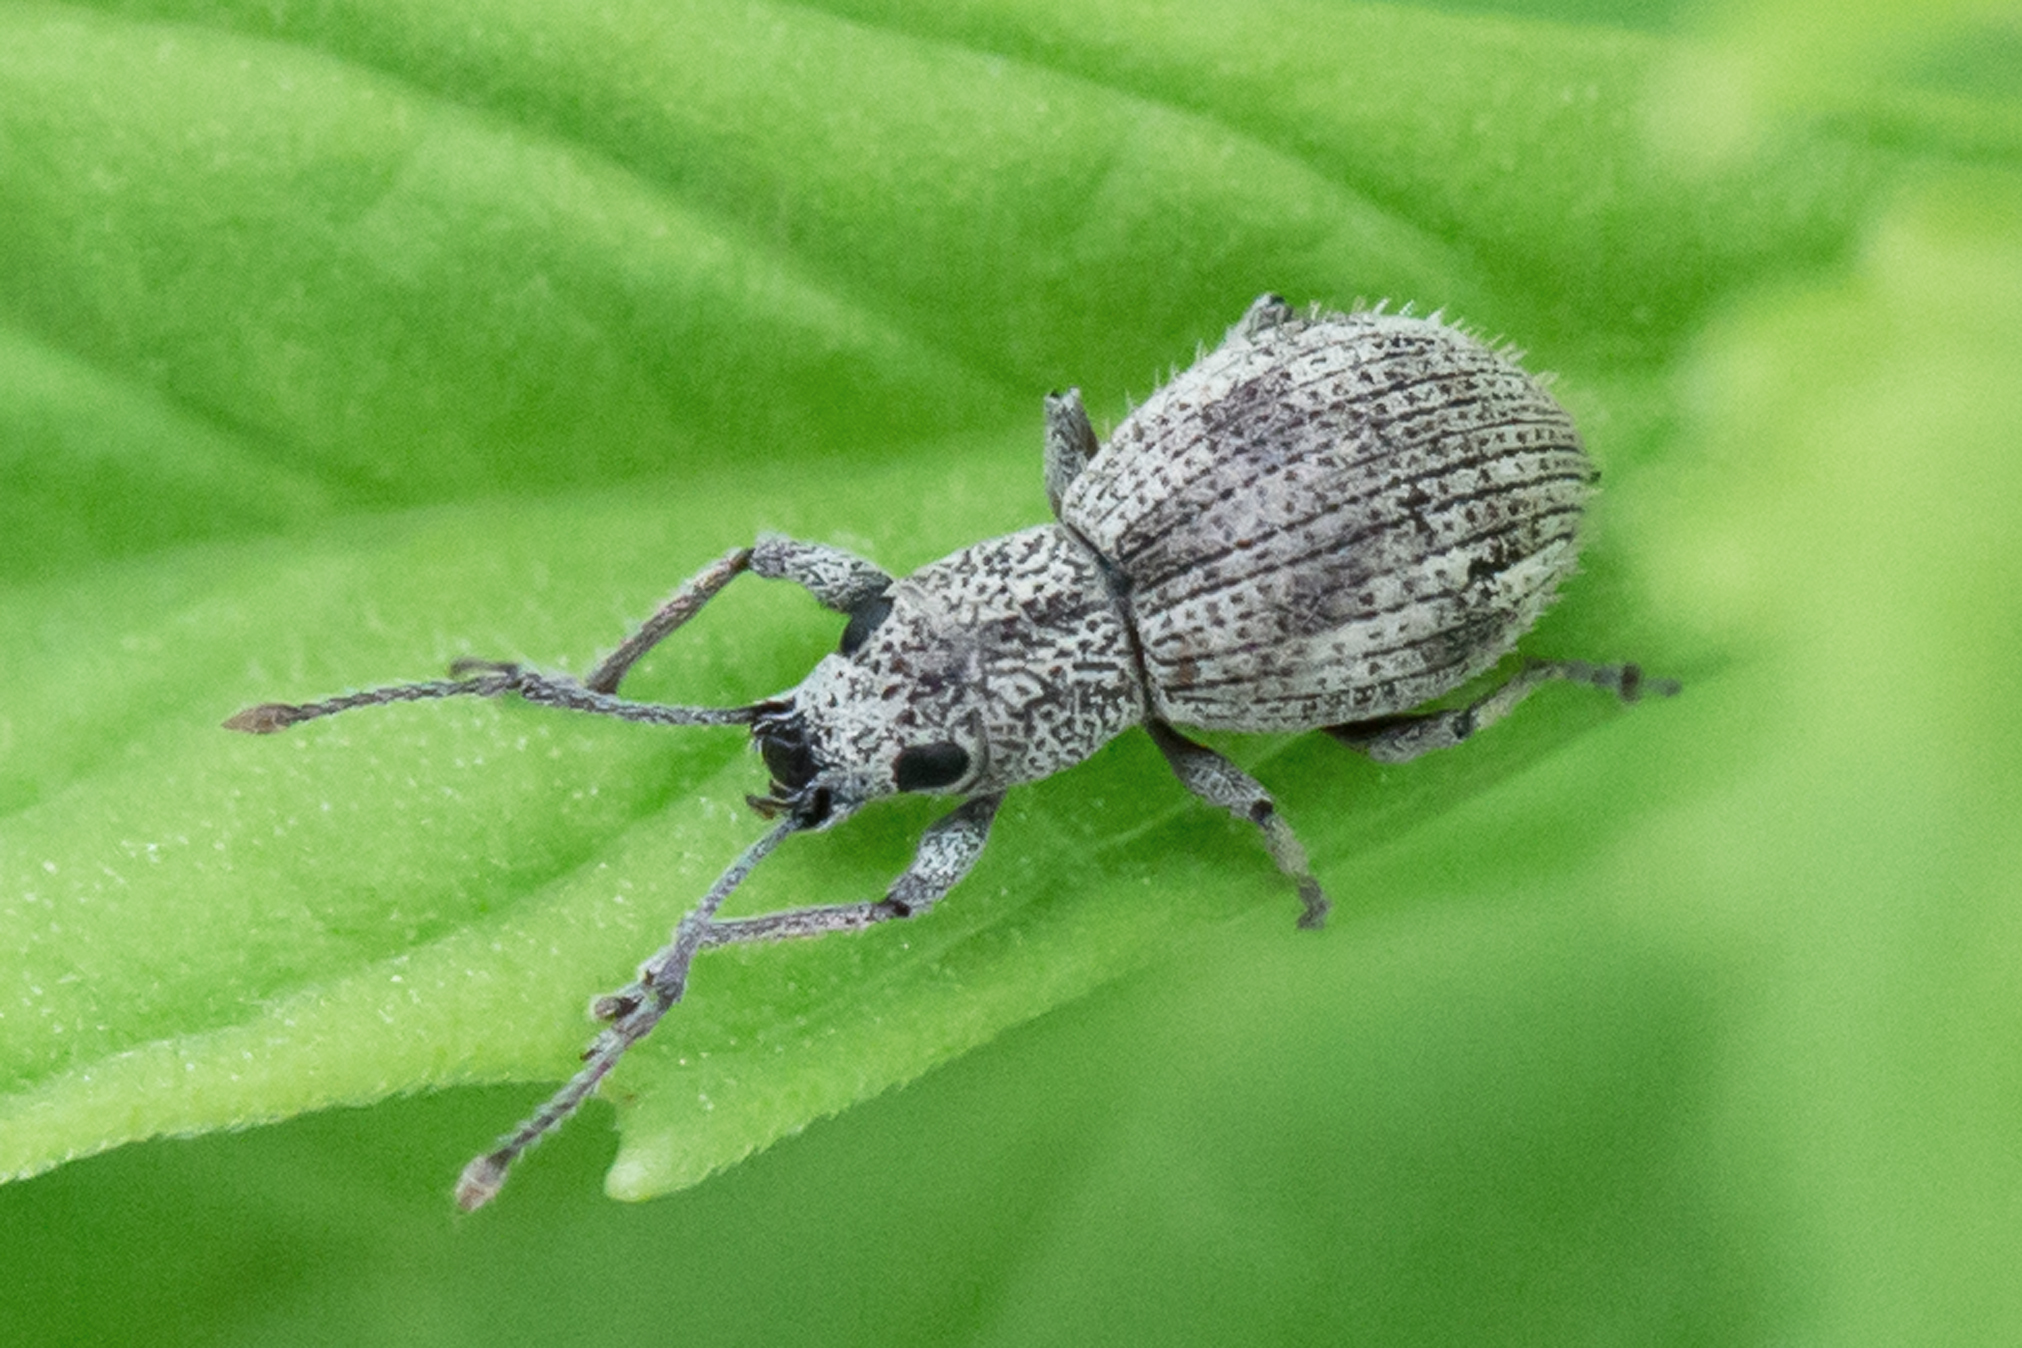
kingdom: Animalia
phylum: Arthropoda
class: Insecta
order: Coleoptera
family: Curculionidae
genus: Calomycterus
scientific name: Calomycterus setarius
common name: Weevil
